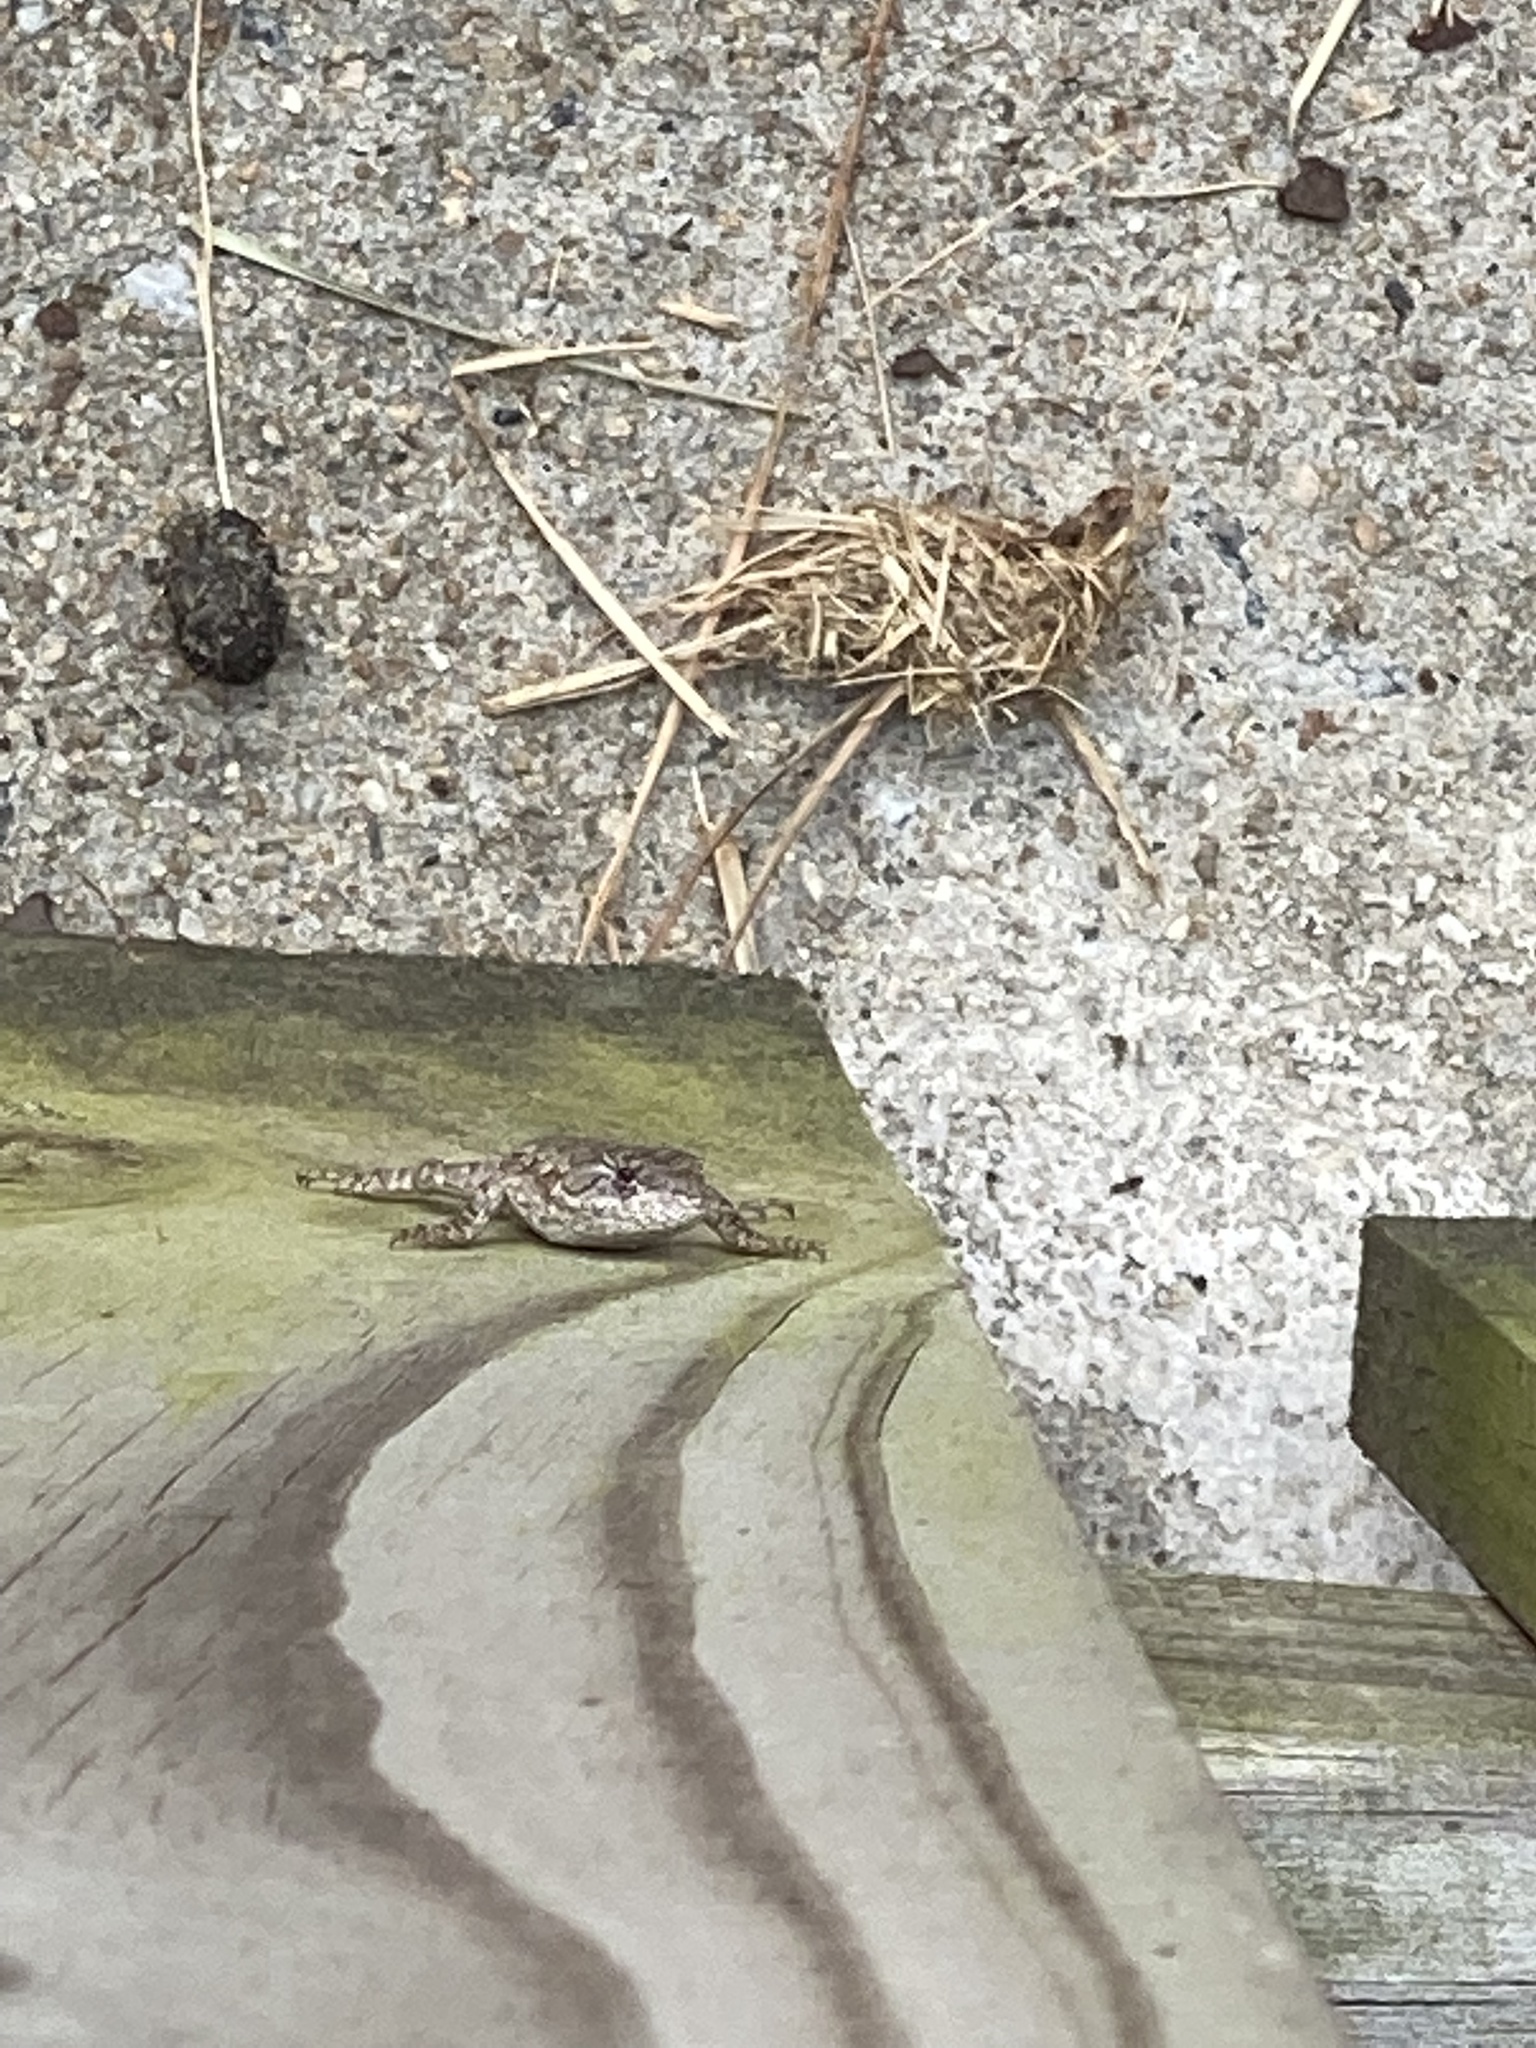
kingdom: Animalia
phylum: Chordata
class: Squamata
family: Phrynosomatidae
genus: Sceloporus
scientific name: Sceloporus undulatus
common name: Eastern fence lizard
